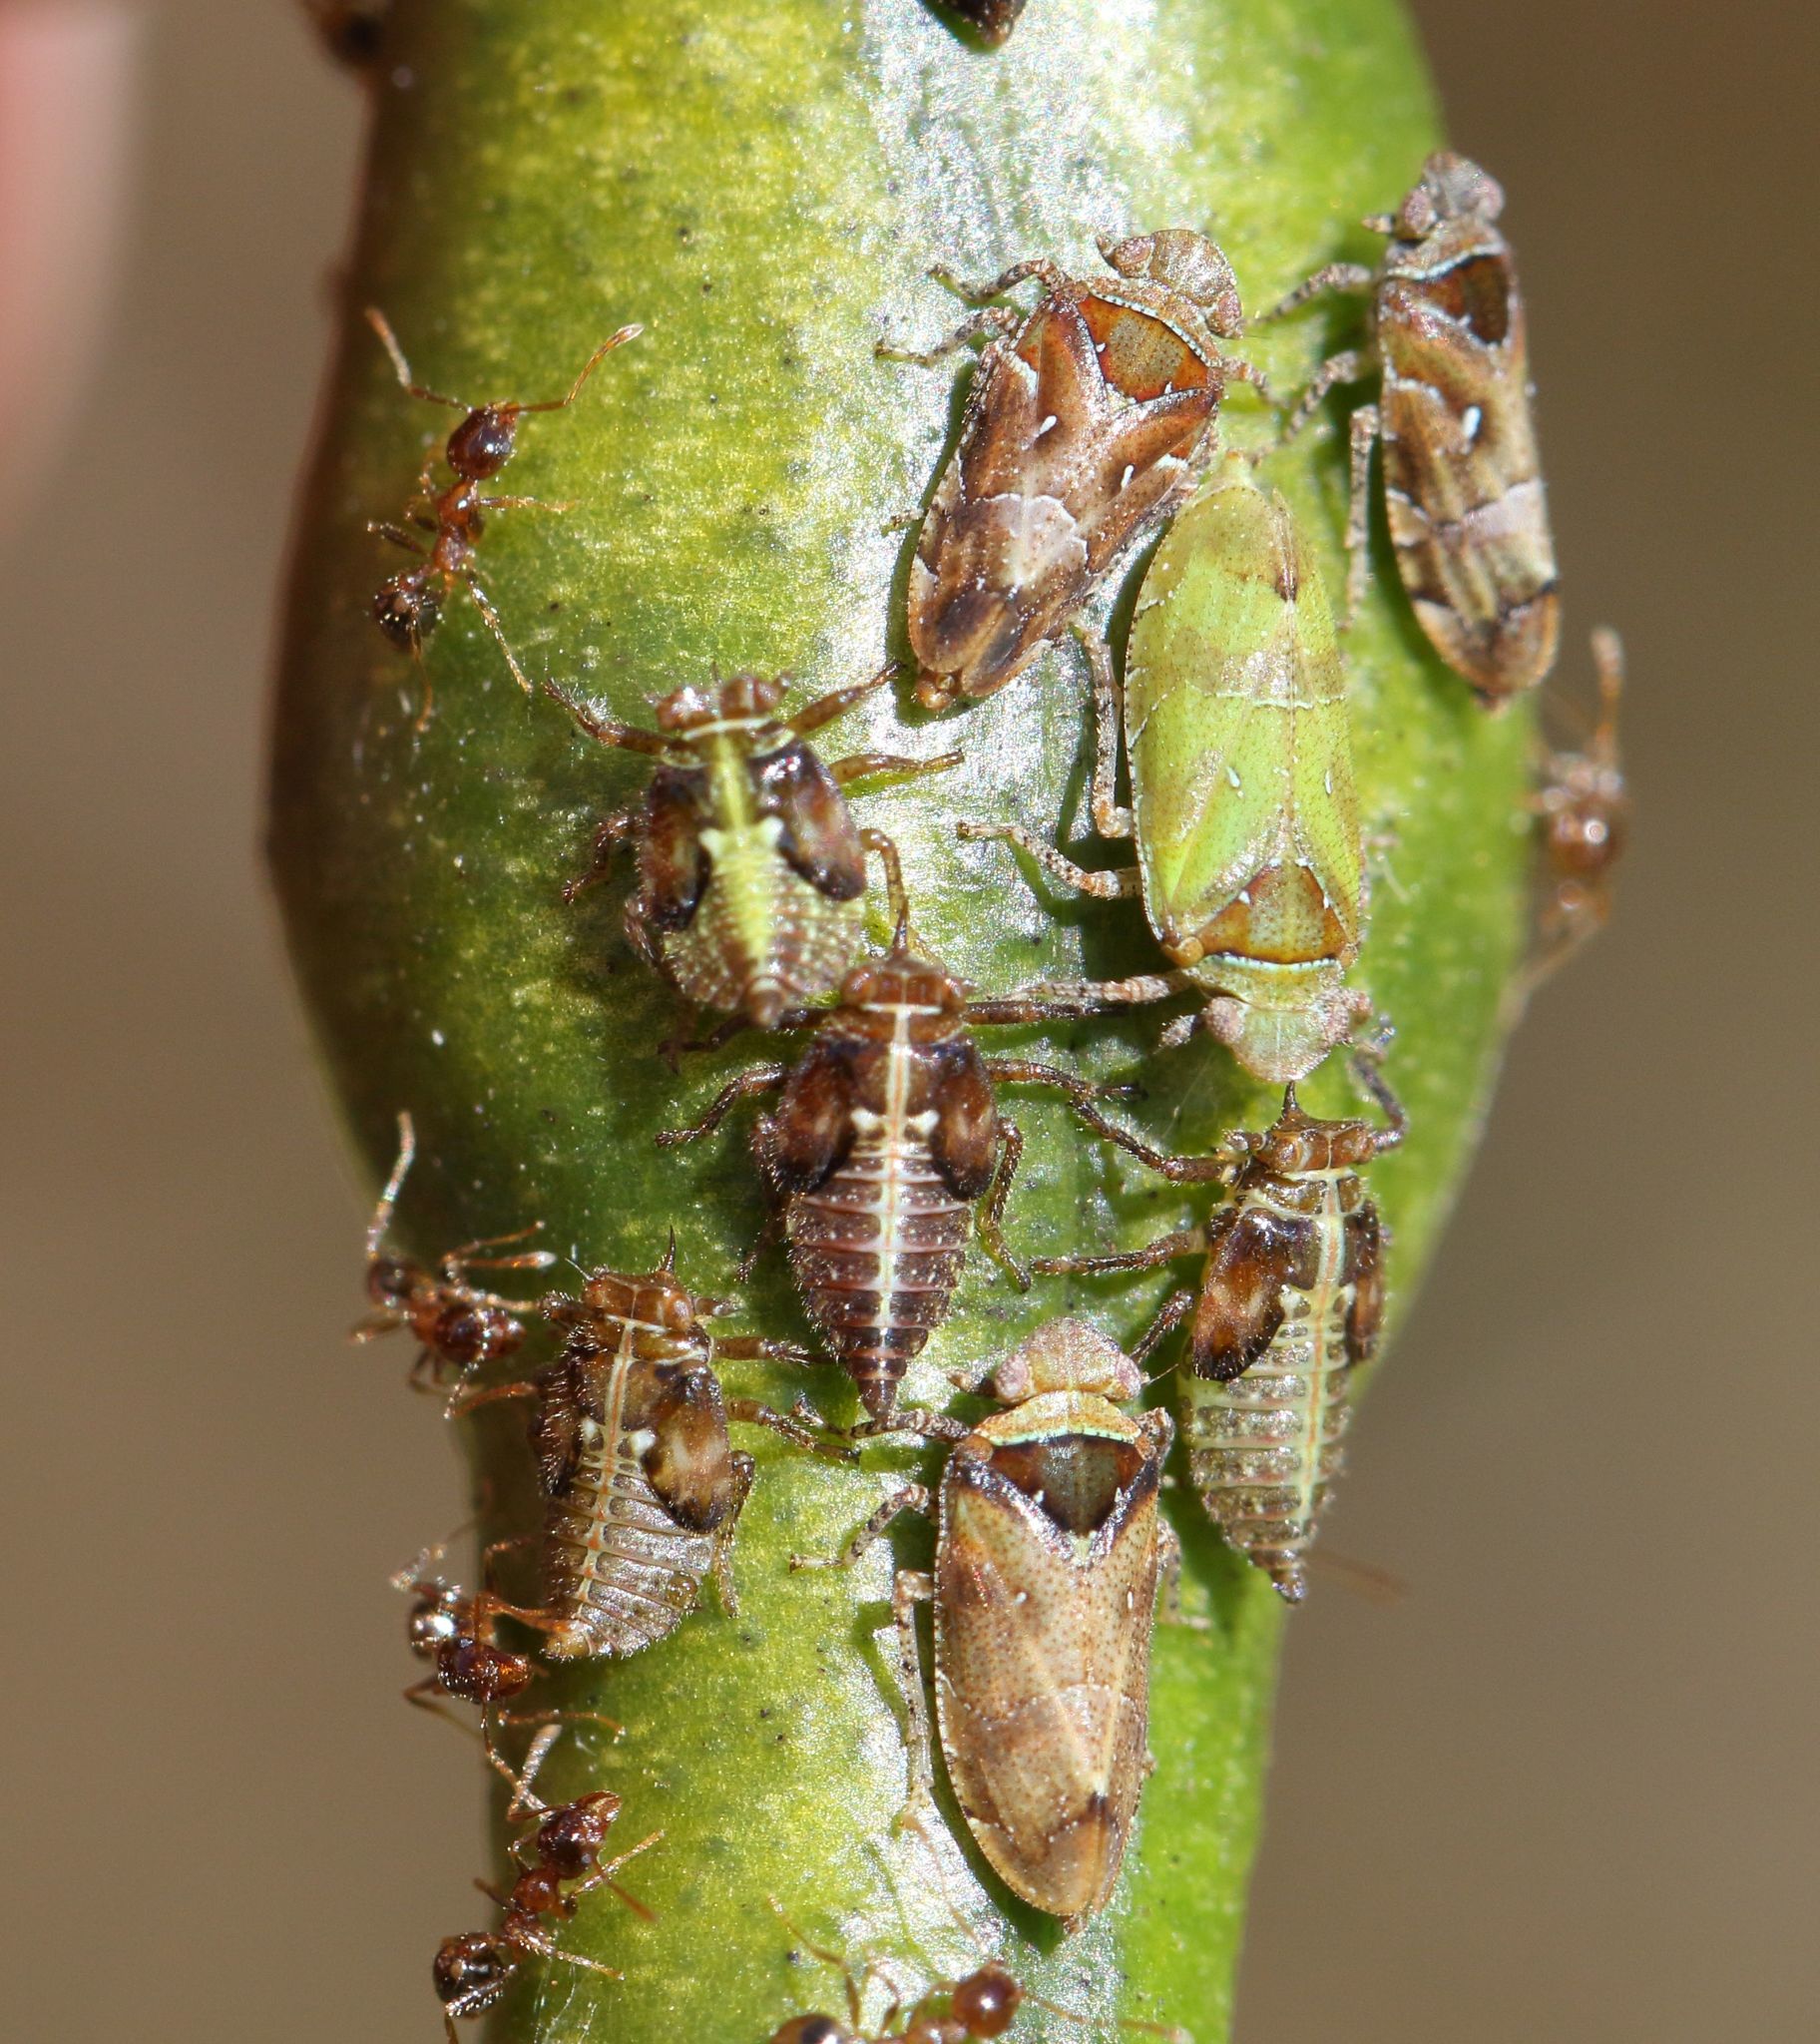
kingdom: Animalia
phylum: Arthropoda
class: Insecta
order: Hemiptera
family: Tettigometridae
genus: Nototettigometra
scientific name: Nototettigometra patruelis
